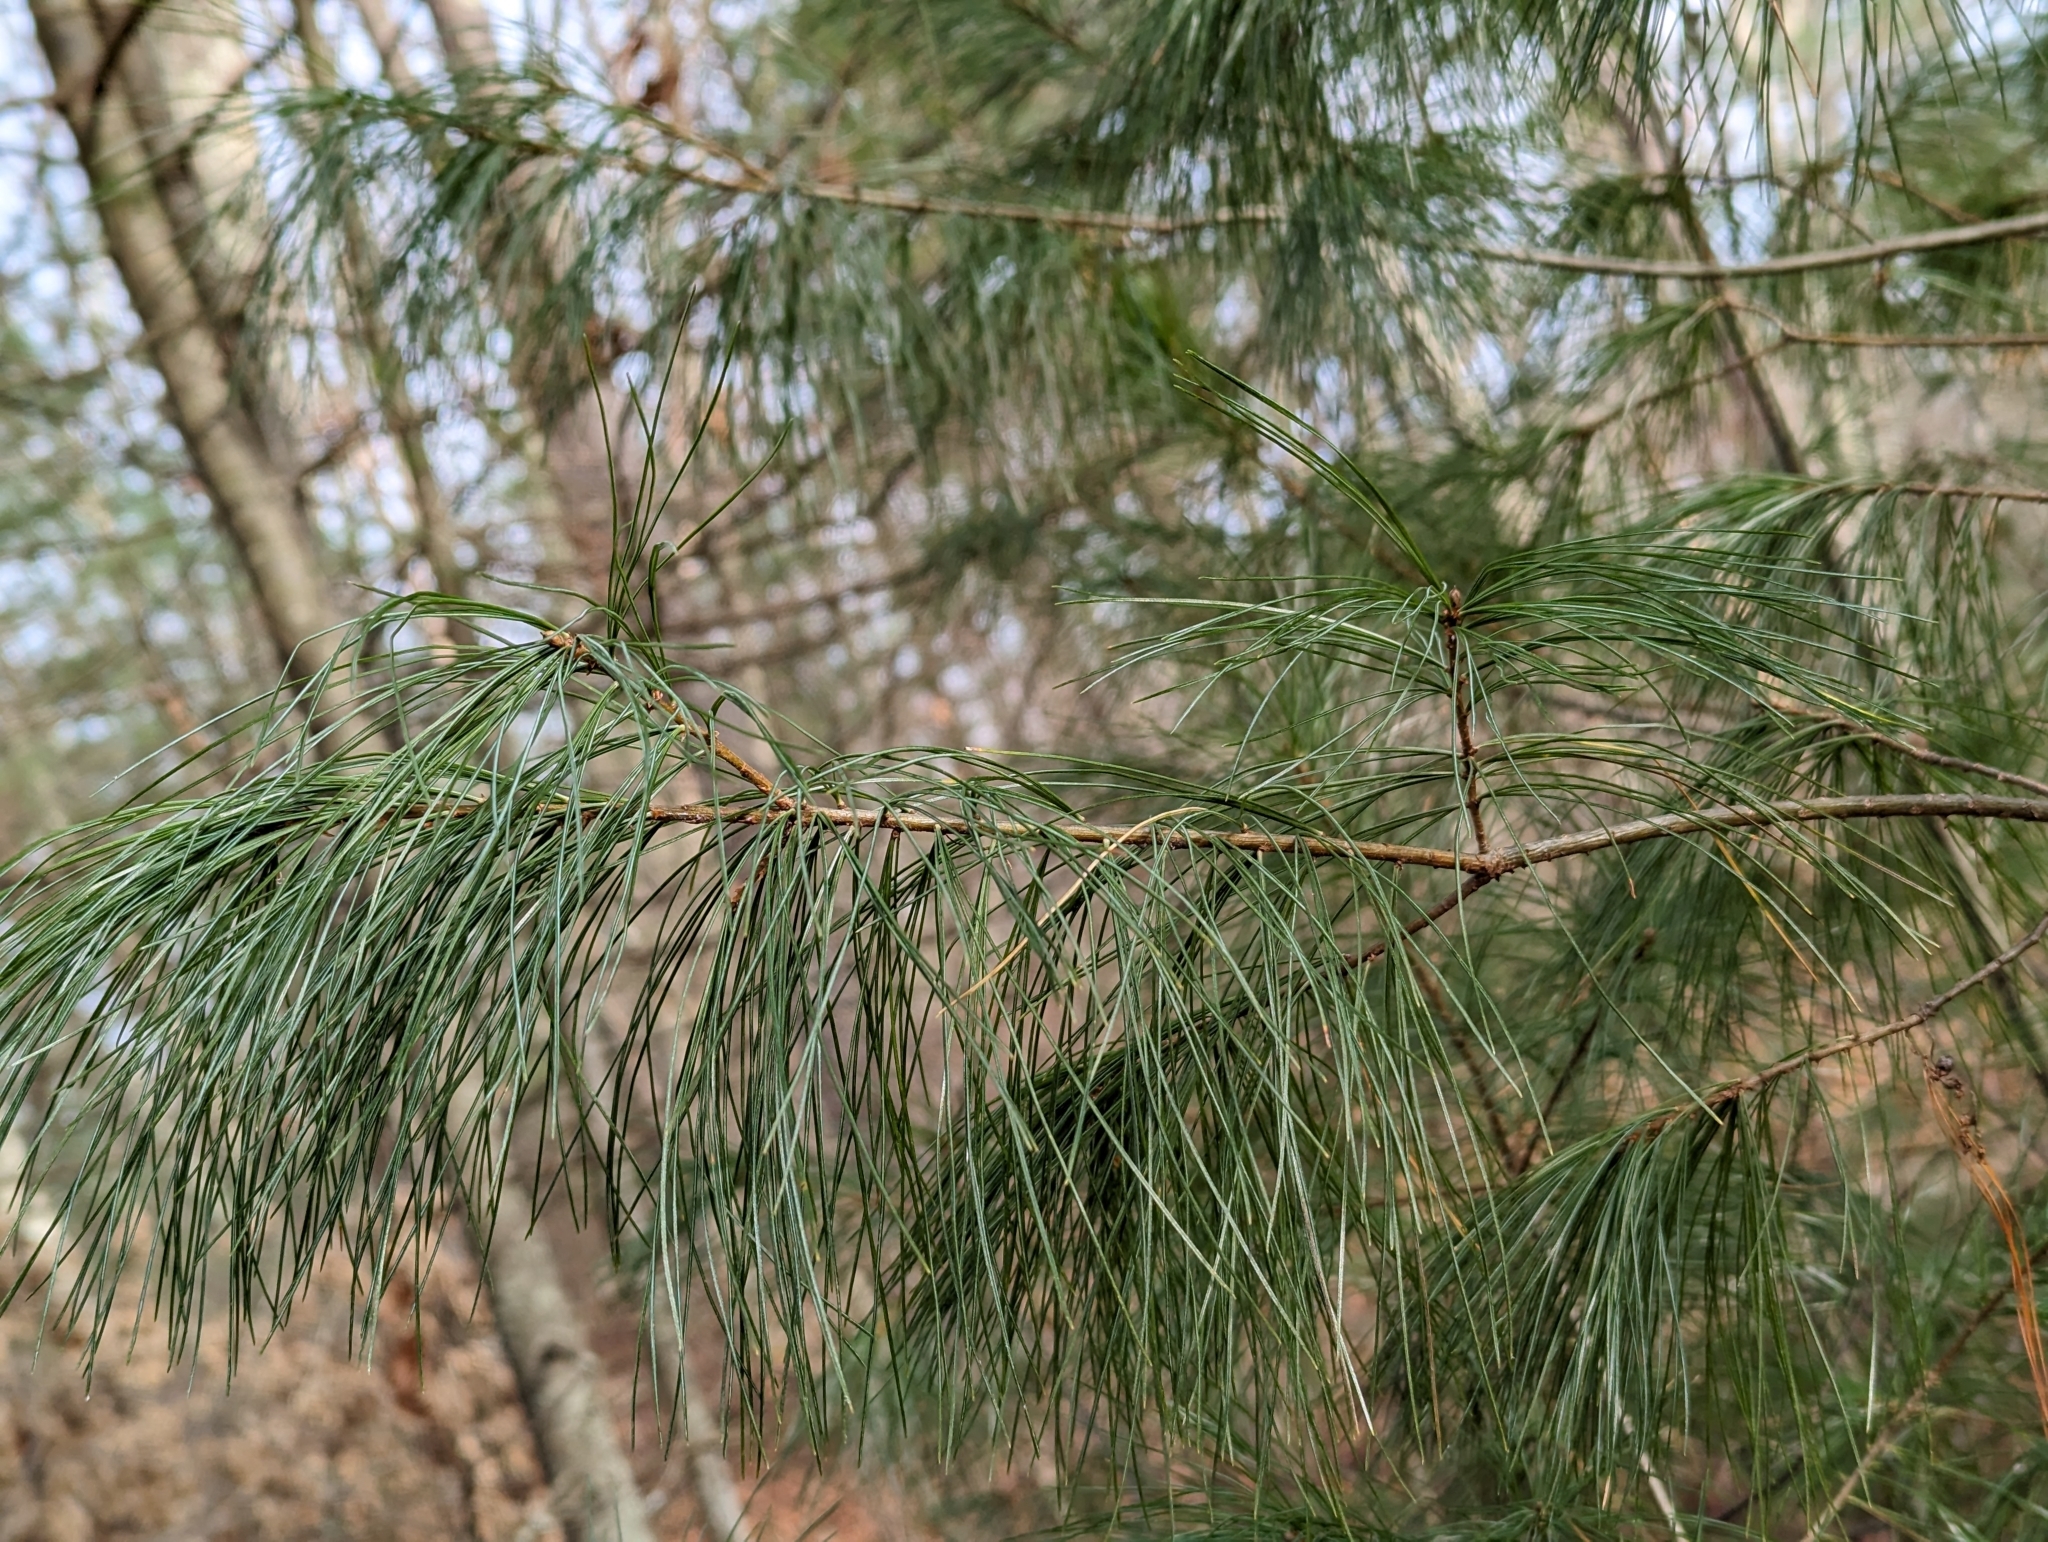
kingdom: Plantae
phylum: Tracheophyta
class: Pinopsida
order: Pinales
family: Pinaceae
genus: Pinus
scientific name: Pinus strobus
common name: Weymouth pine
